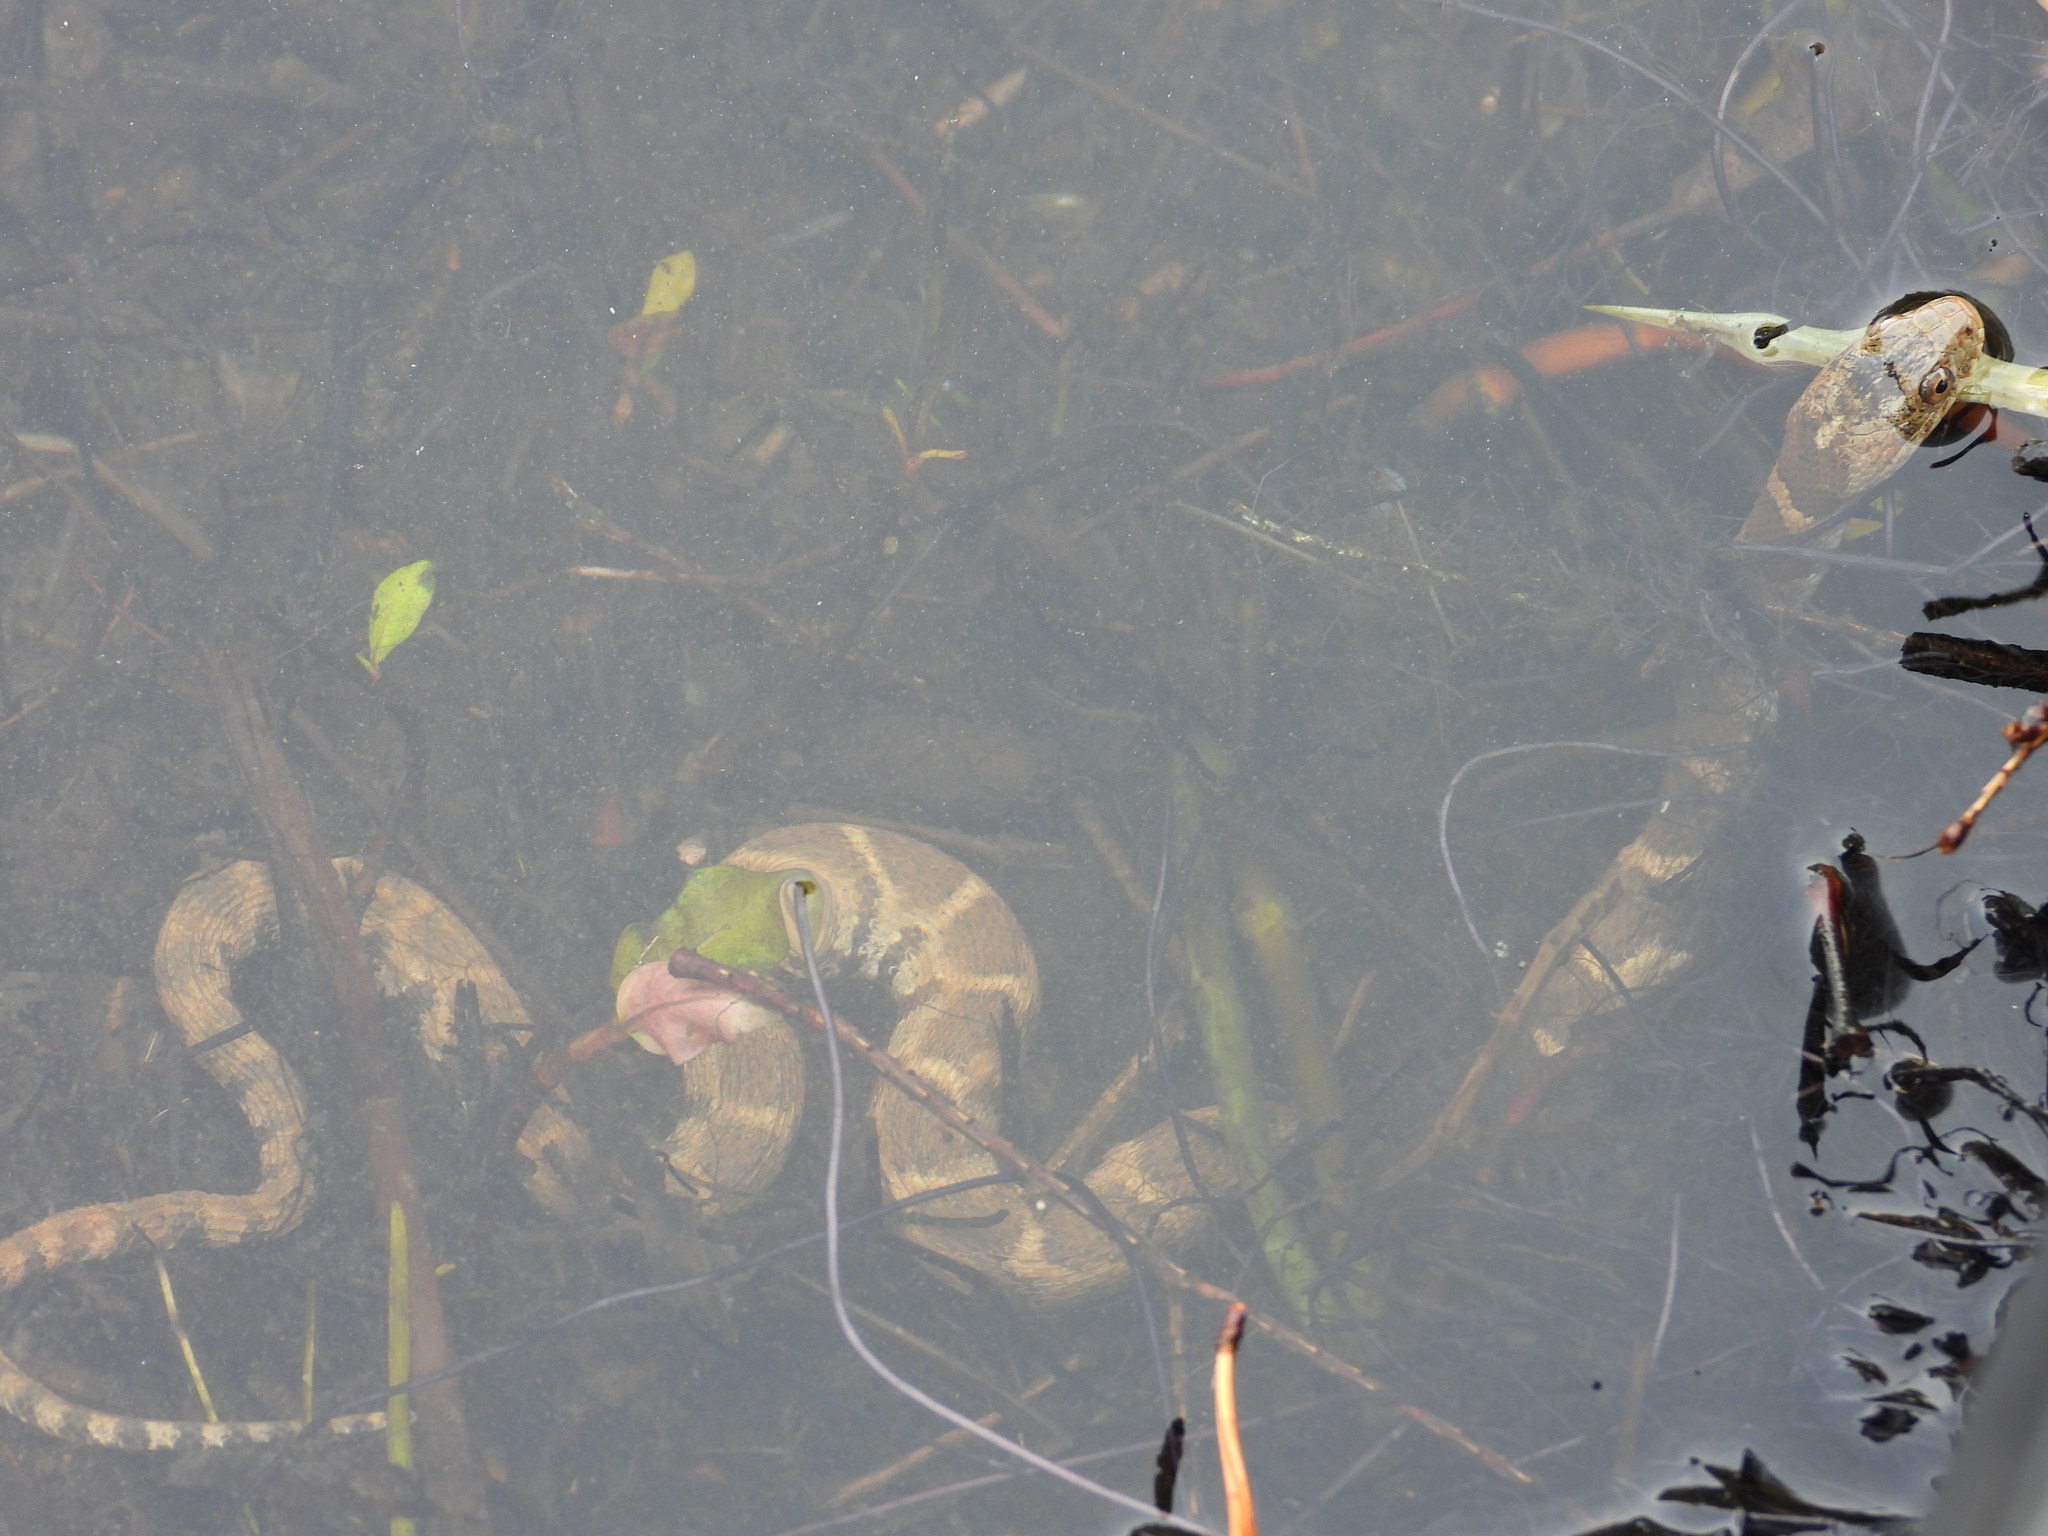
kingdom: Animalia
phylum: Chordata
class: Squamata
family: Colubridae
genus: Nerodia
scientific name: Nerodia sipedon
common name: Northern water snake
